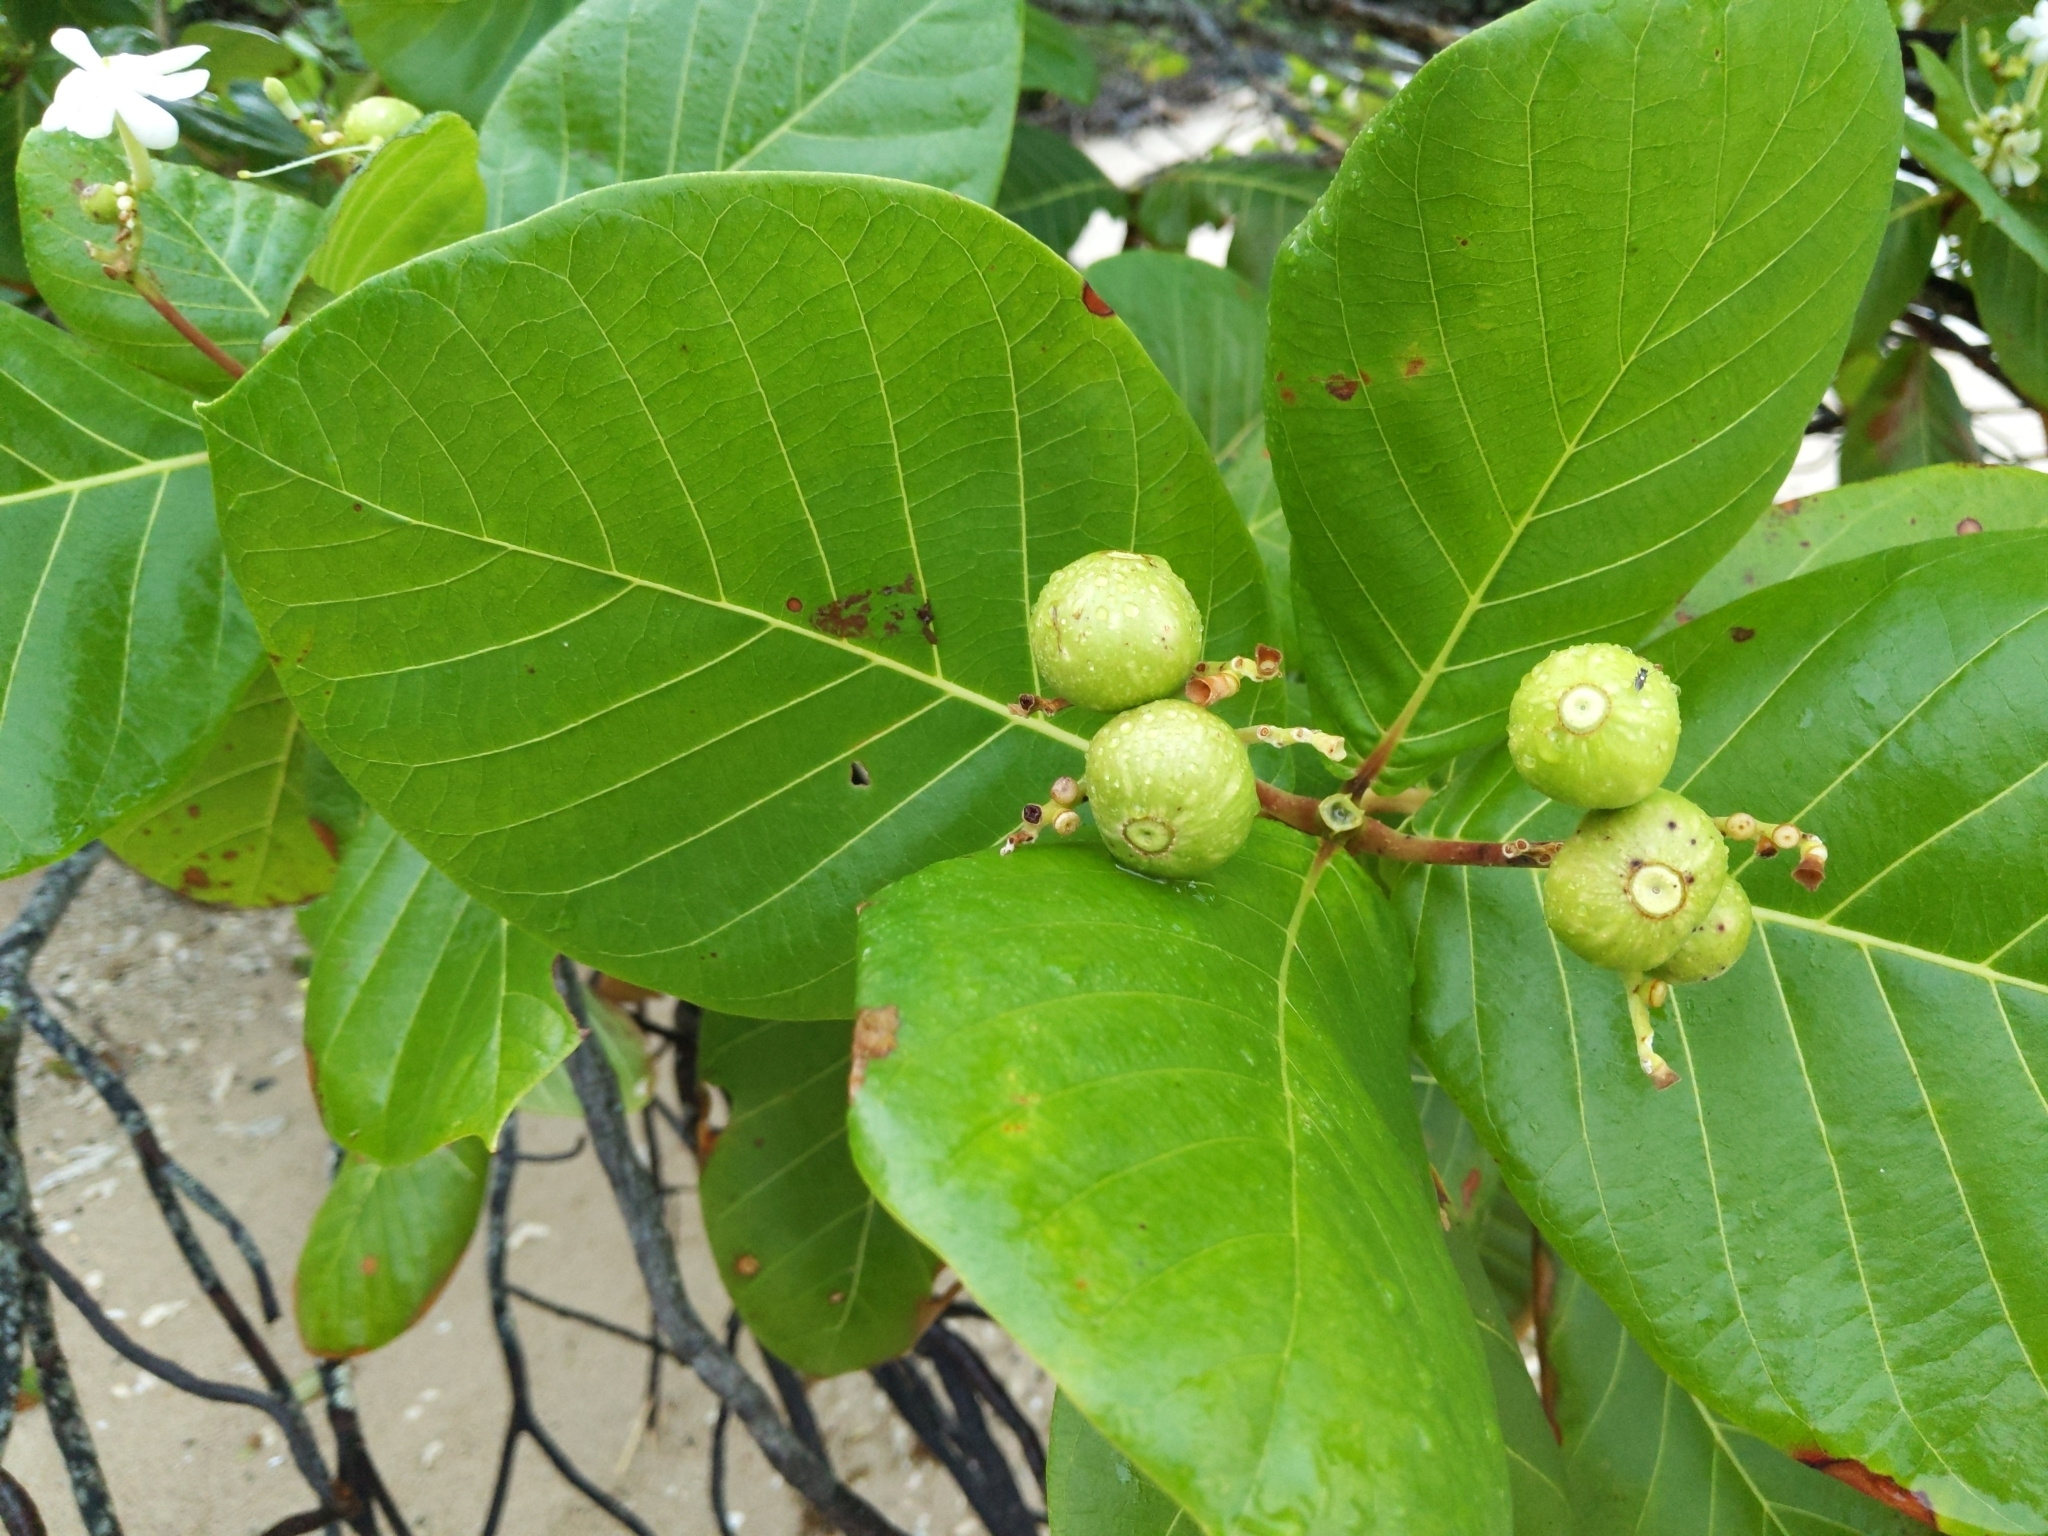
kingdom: Plantae
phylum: Tracheophyta
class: Magnoliopsida
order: Gentianales
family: Rubiaceae
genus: Guettarda
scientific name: Guettarda speciosa
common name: Sea randa
